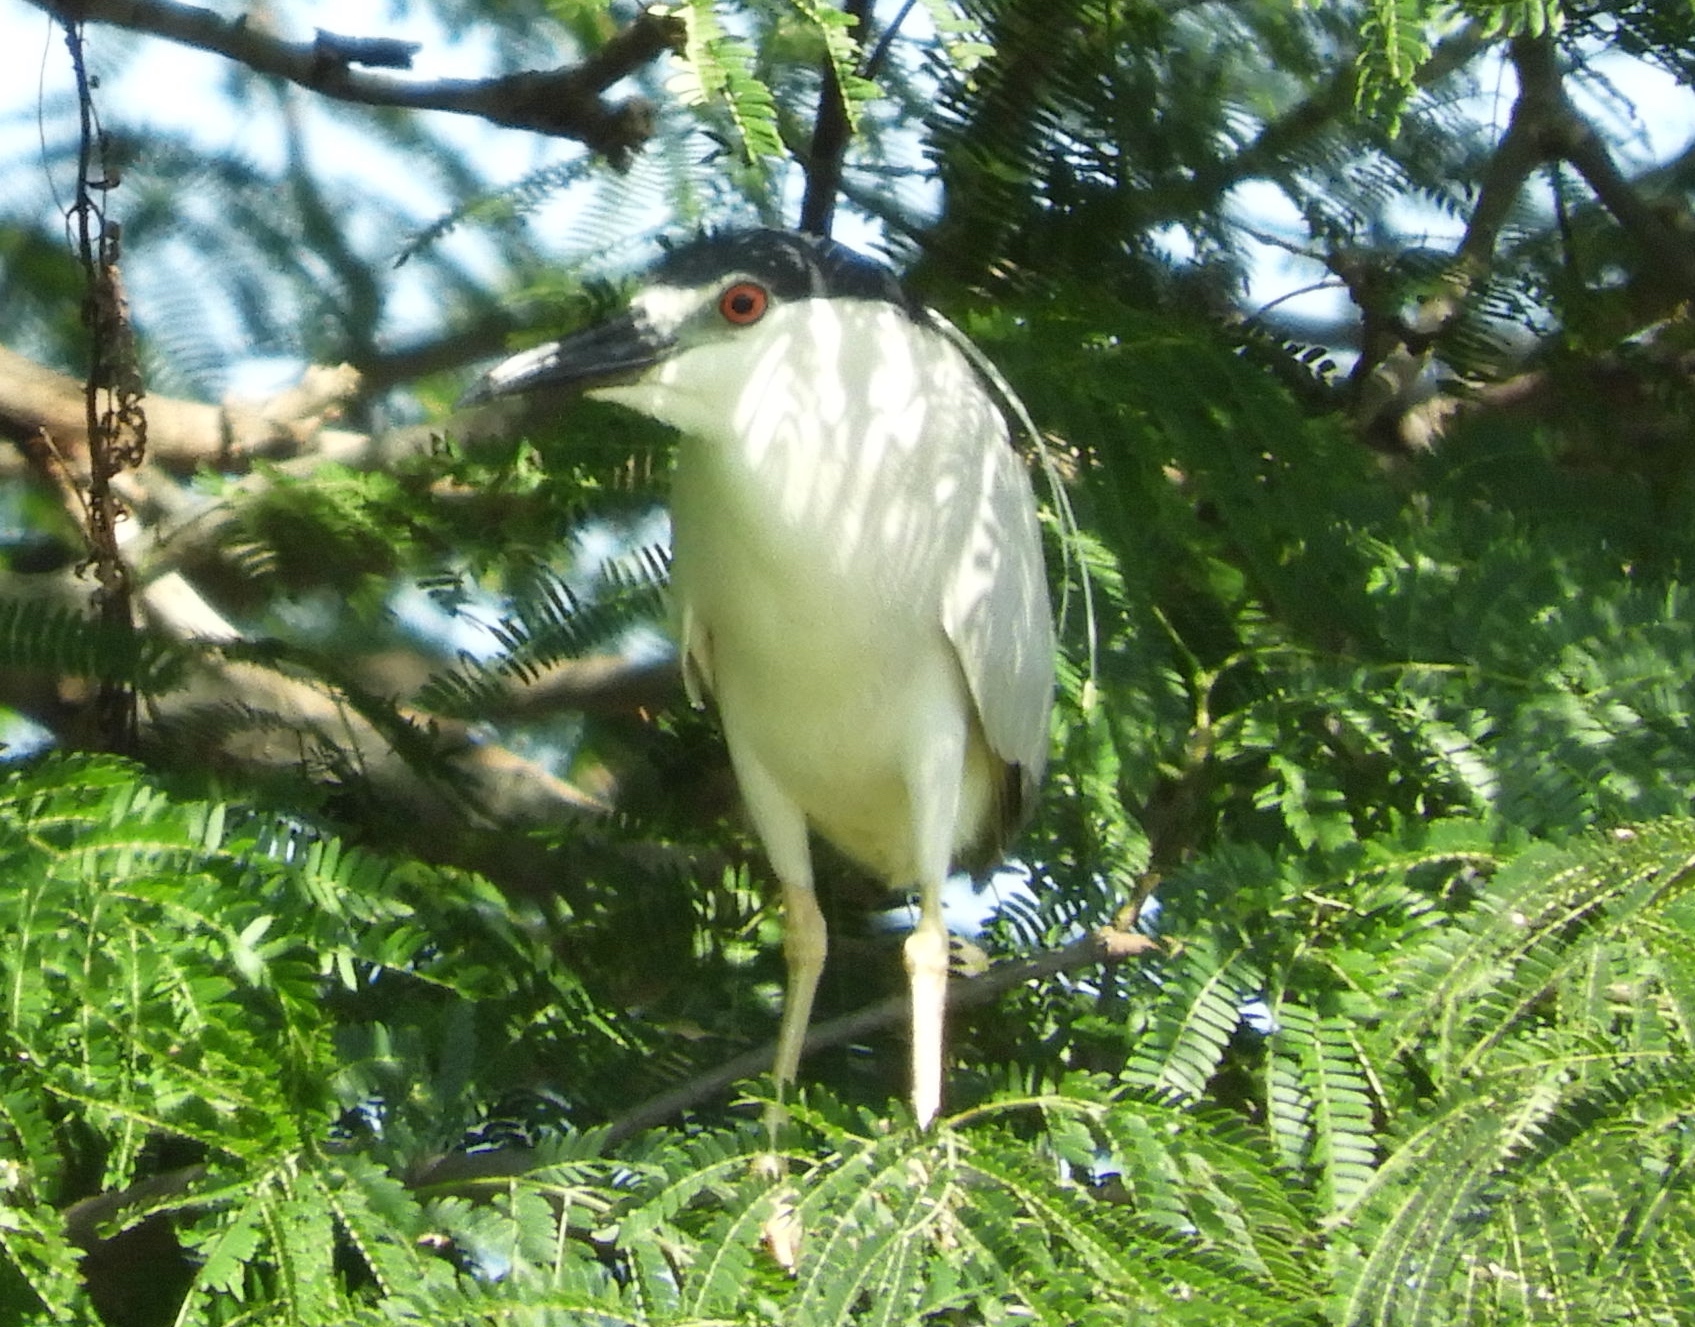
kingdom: Animalia
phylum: Chordata
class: Aves
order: Pelecaniformes
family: Ardeidae
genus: Nycticorax
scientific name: Nycticorax nycticorax
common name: Black-crowned night heron
